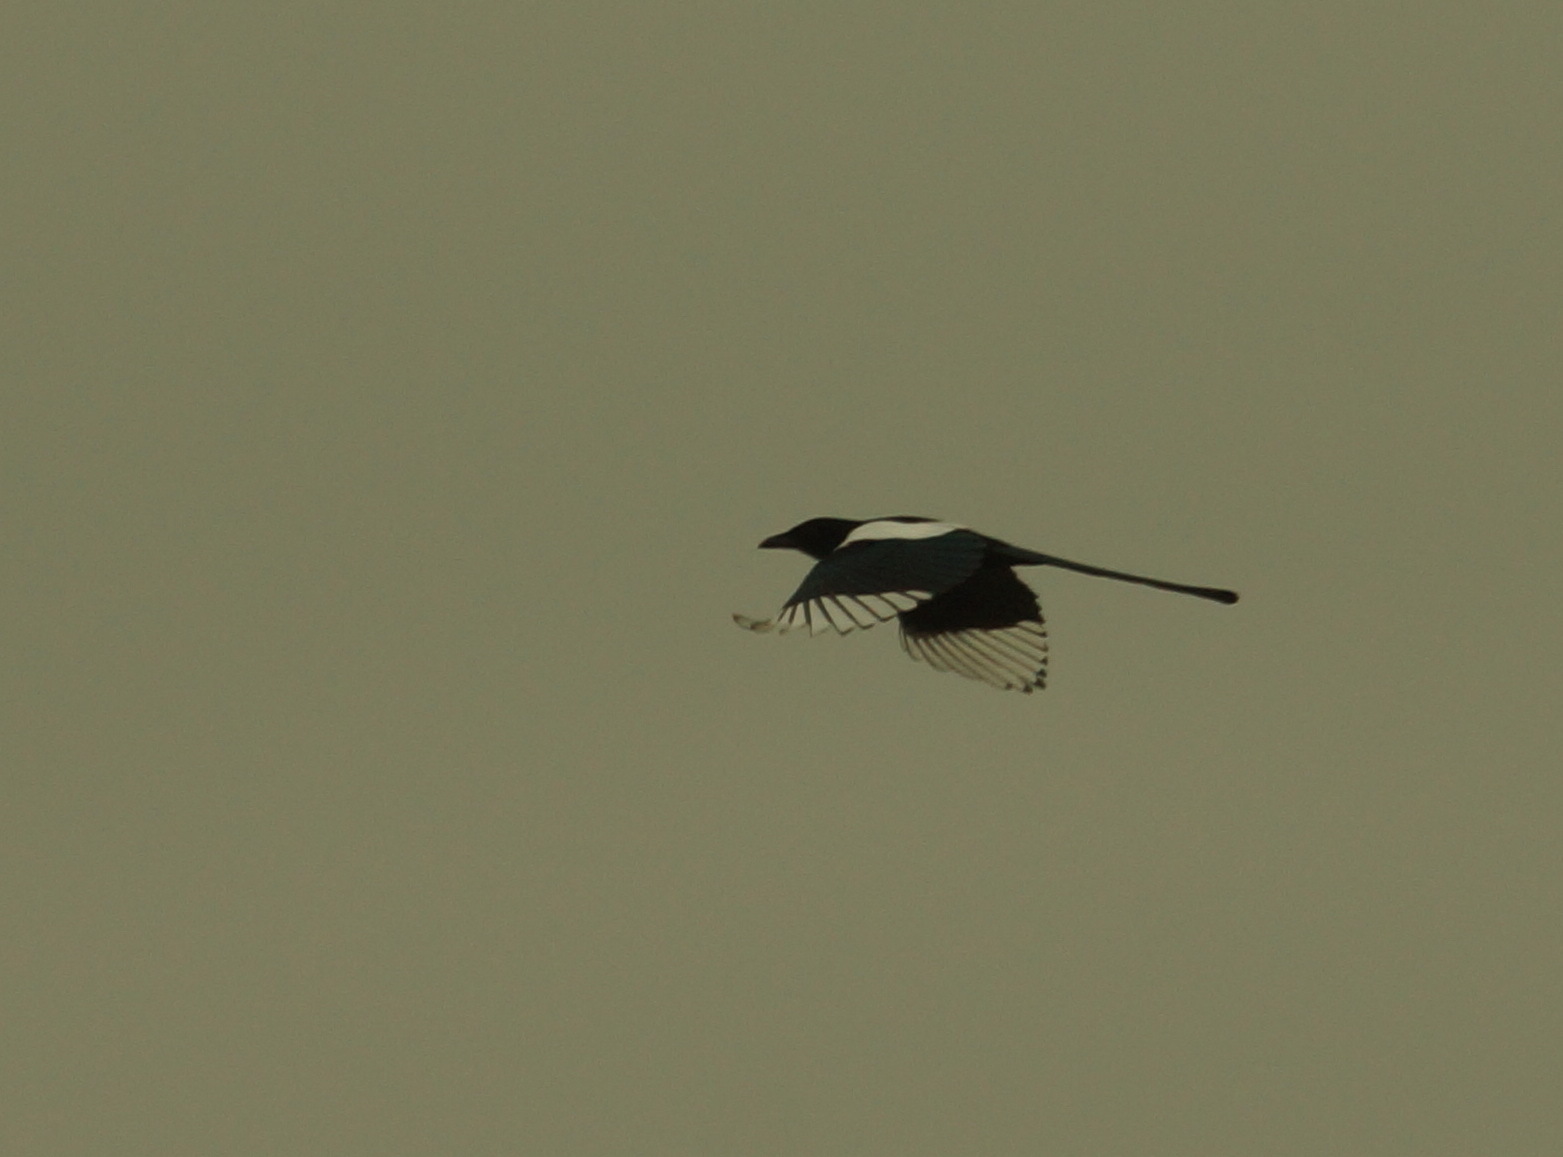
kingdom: Animalia
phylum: Chordata
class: Aves
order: Passeriformes
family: Corvidae
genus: Pica
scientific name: Pica pica
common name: Eurasian magpie
